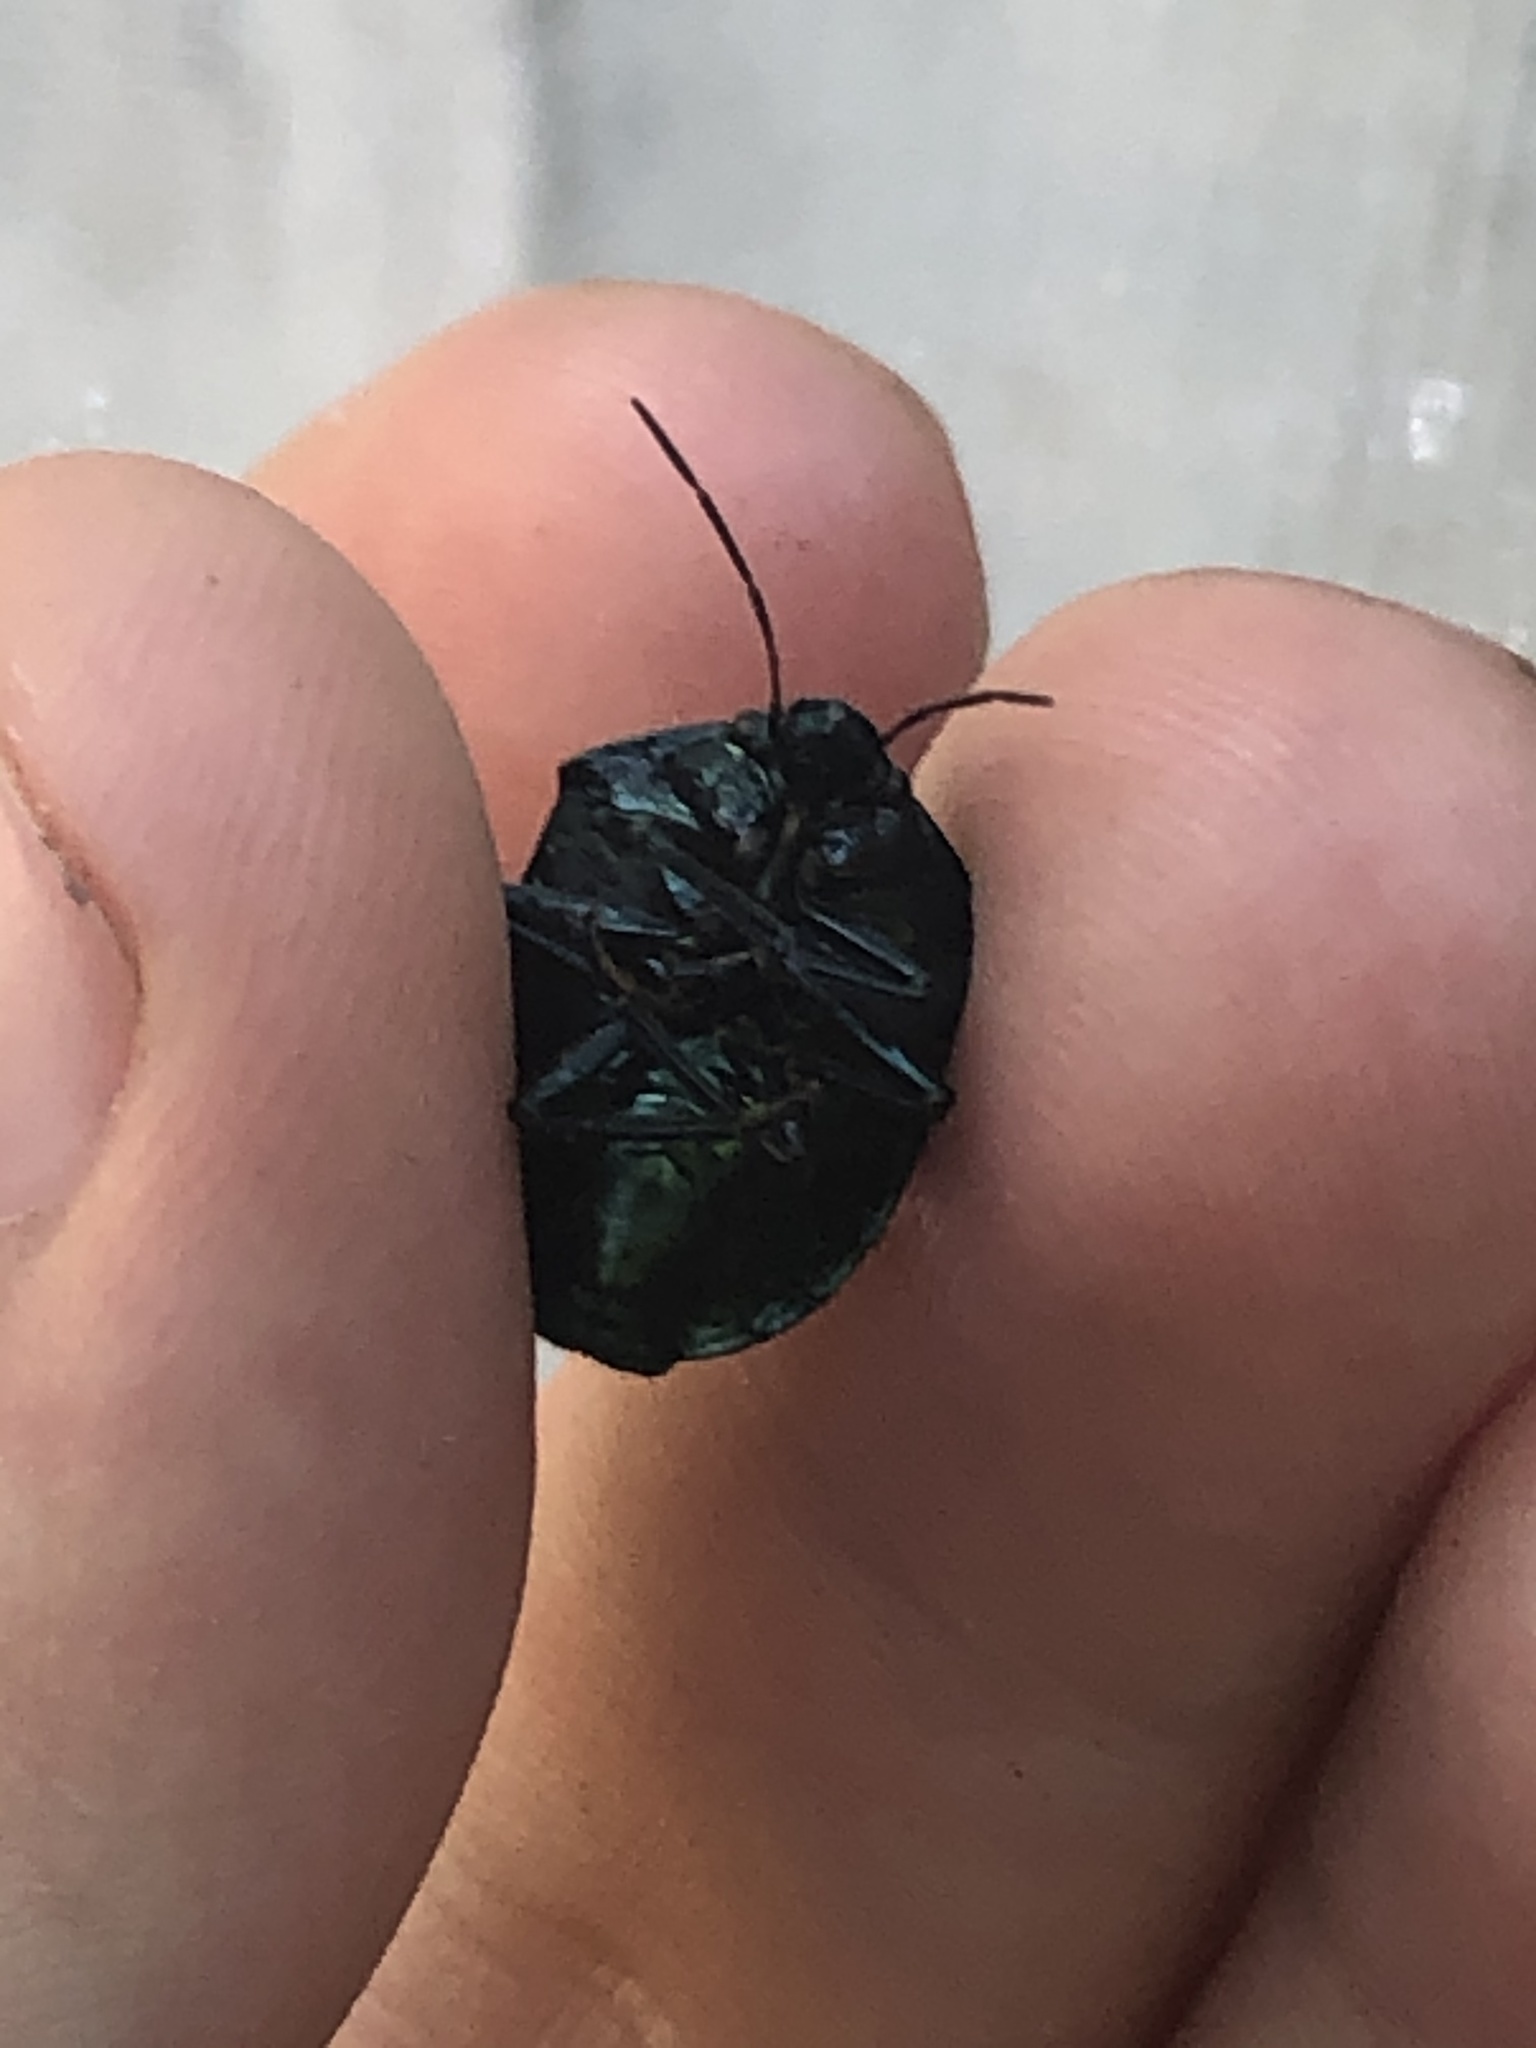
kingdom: Animalia
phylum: Arthropoda
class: Insecta
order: Hemiptera
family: Scutelleridae
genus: Pachycoris
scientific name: Pachycoris torridus
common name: Torrid jewel bug
